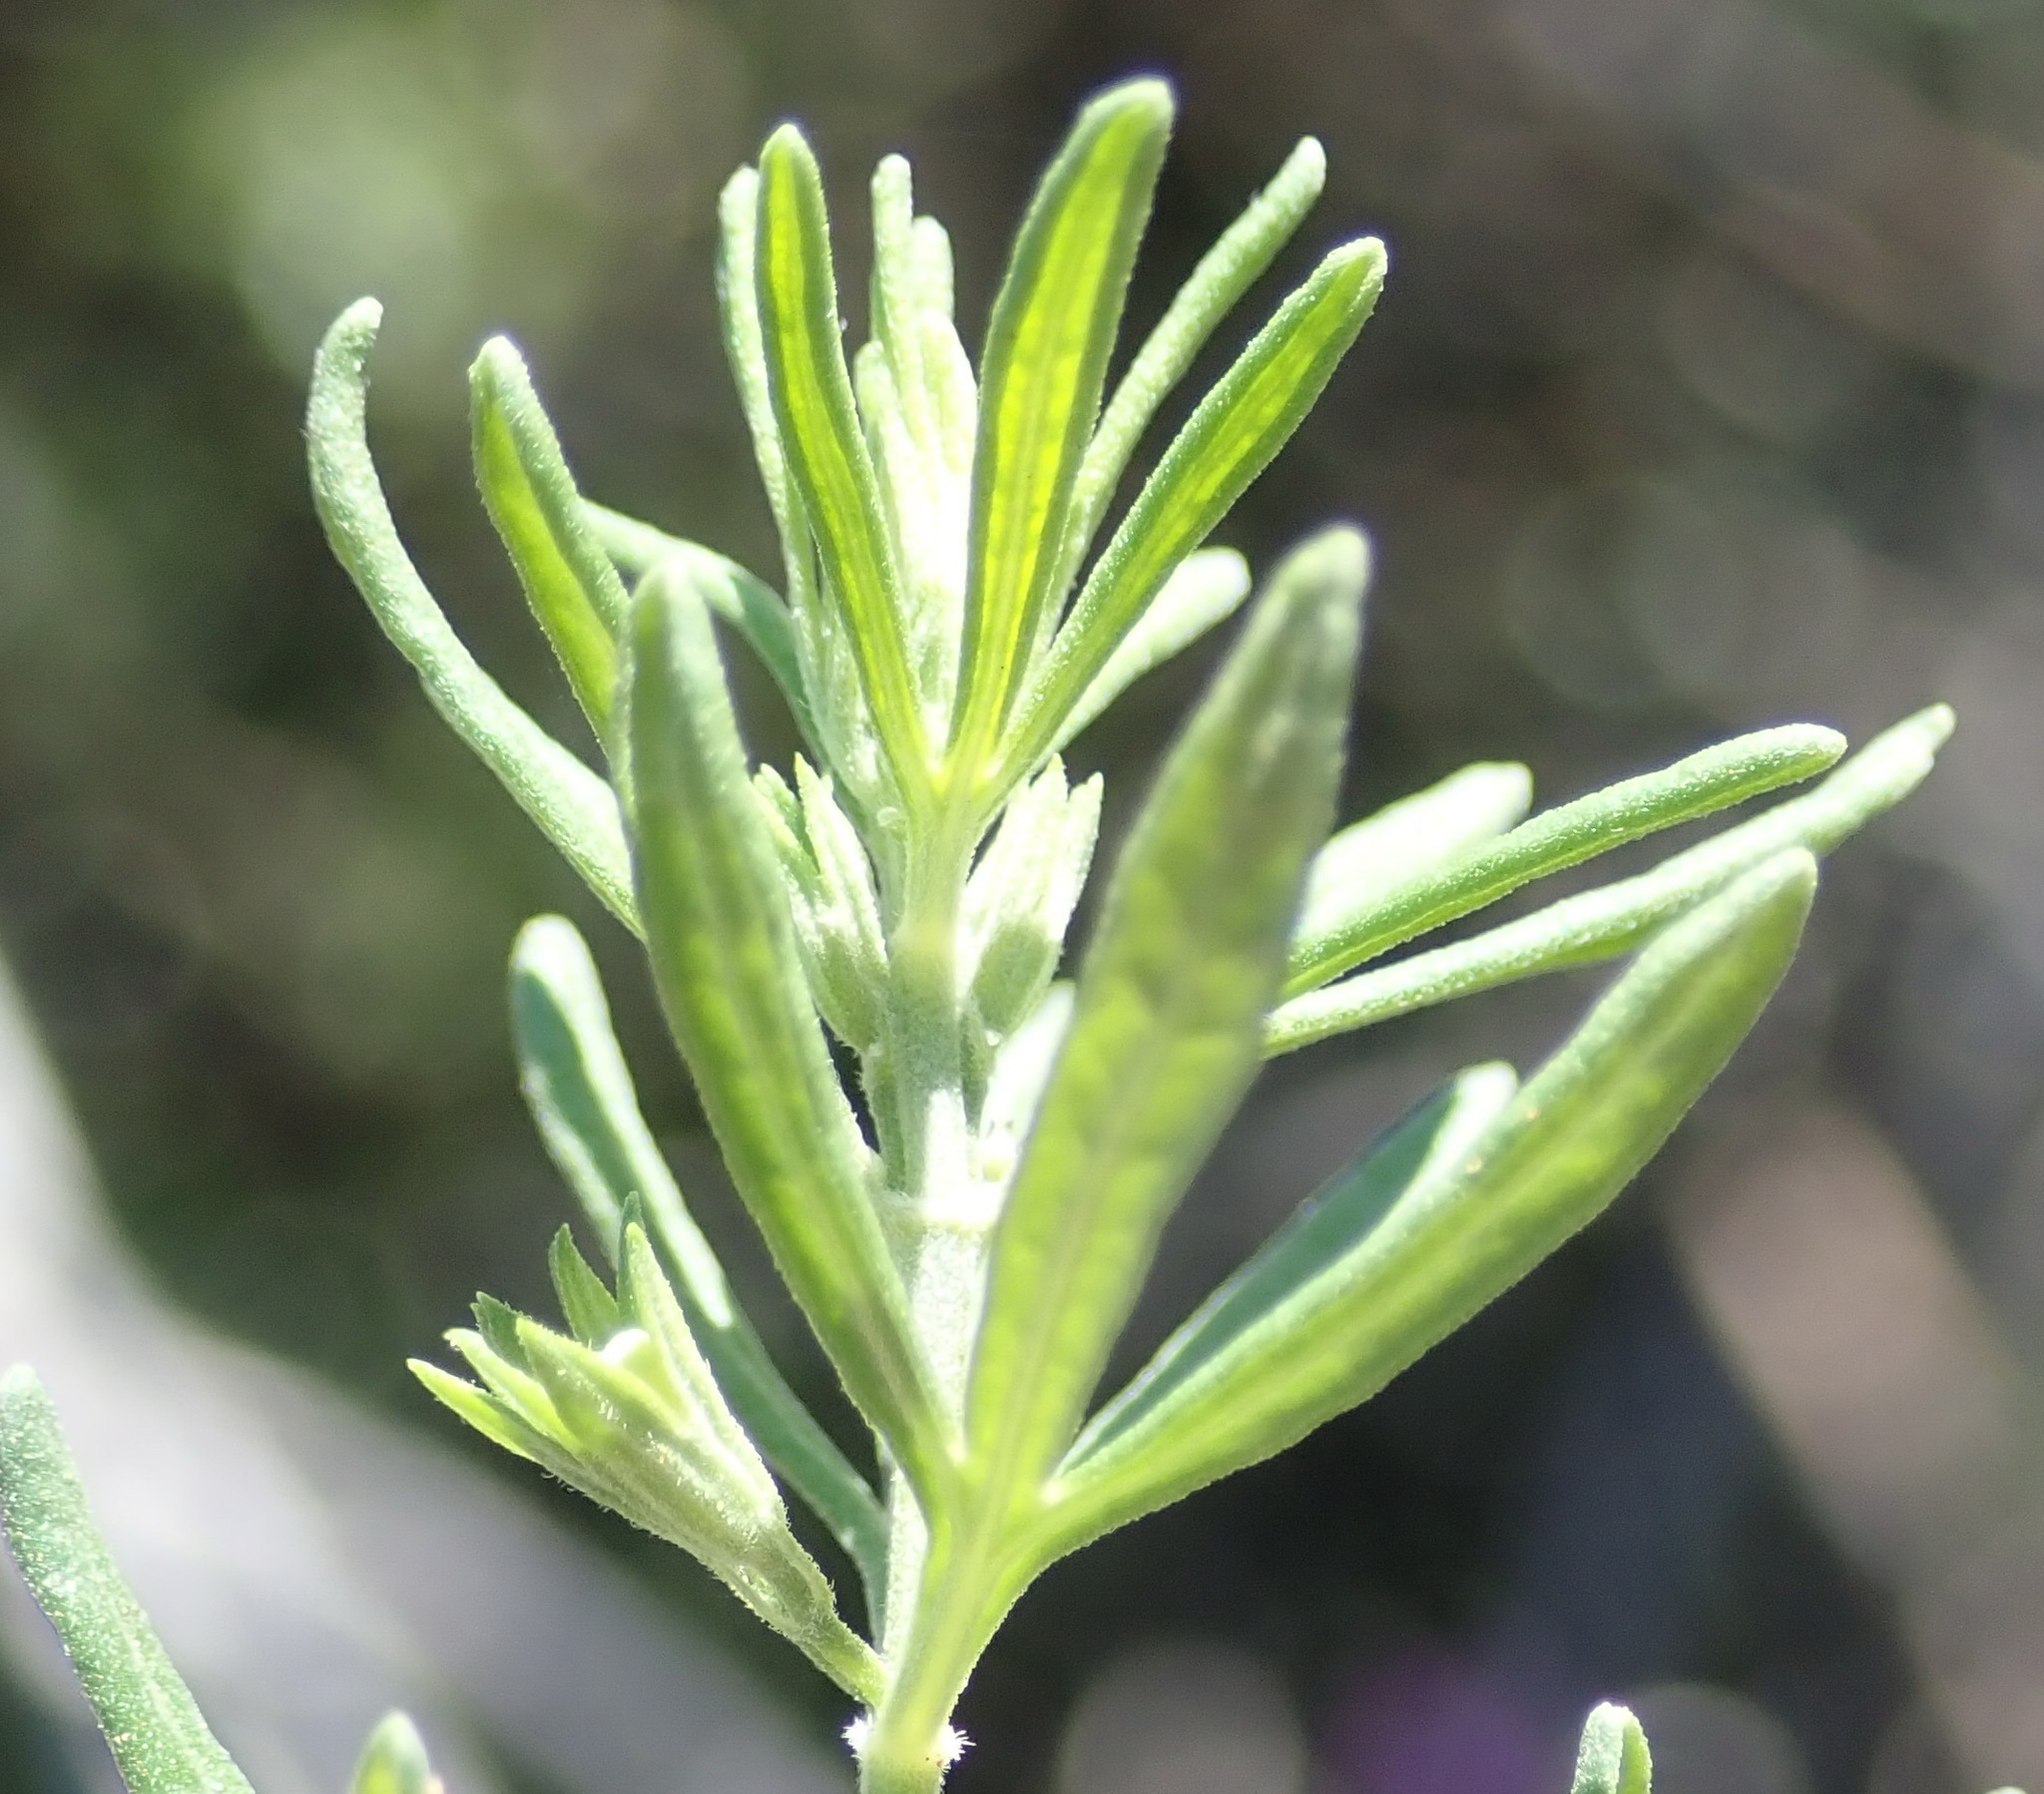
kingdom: Plantae
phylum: Tracheophyta
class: Magnoliopsida
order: Lamiales
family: Lamiaceae
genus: Teucrium
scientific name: Teucrium africanum
